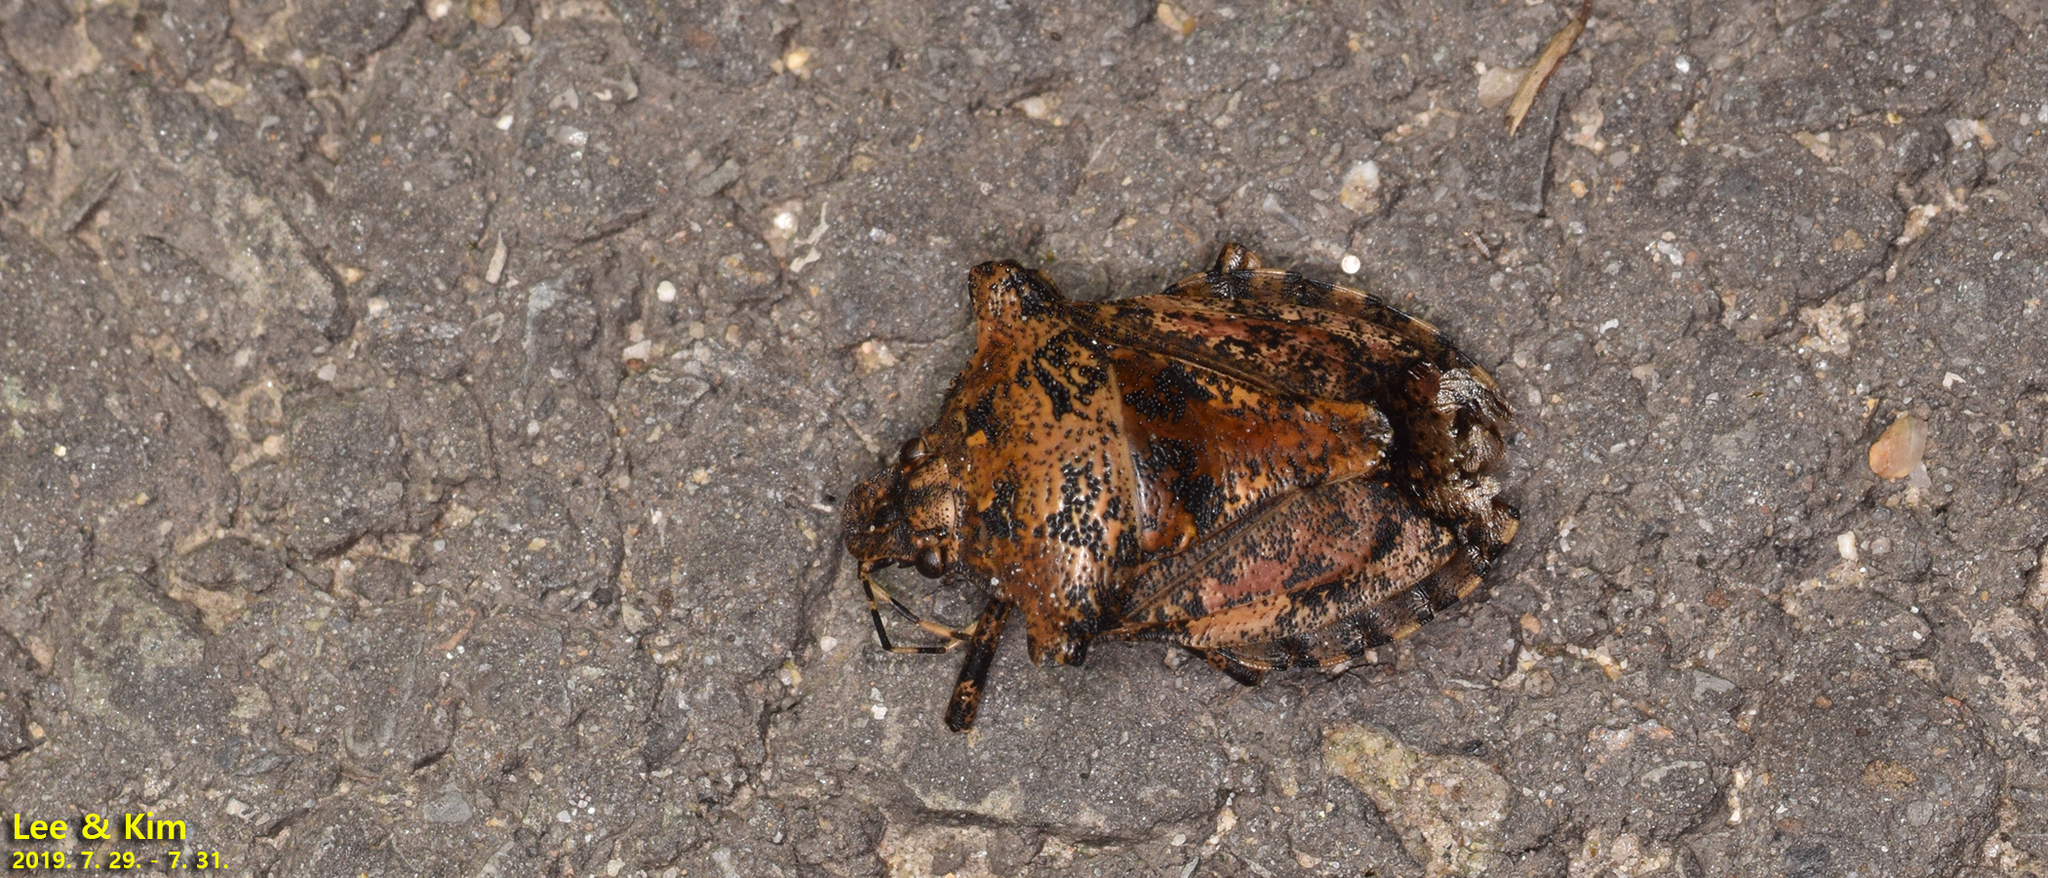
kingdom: Animalia
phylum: Arthropoda
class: Insecta
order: Hemiptera
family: Pentatomidae
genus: Placosternum
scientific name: Placosternum
